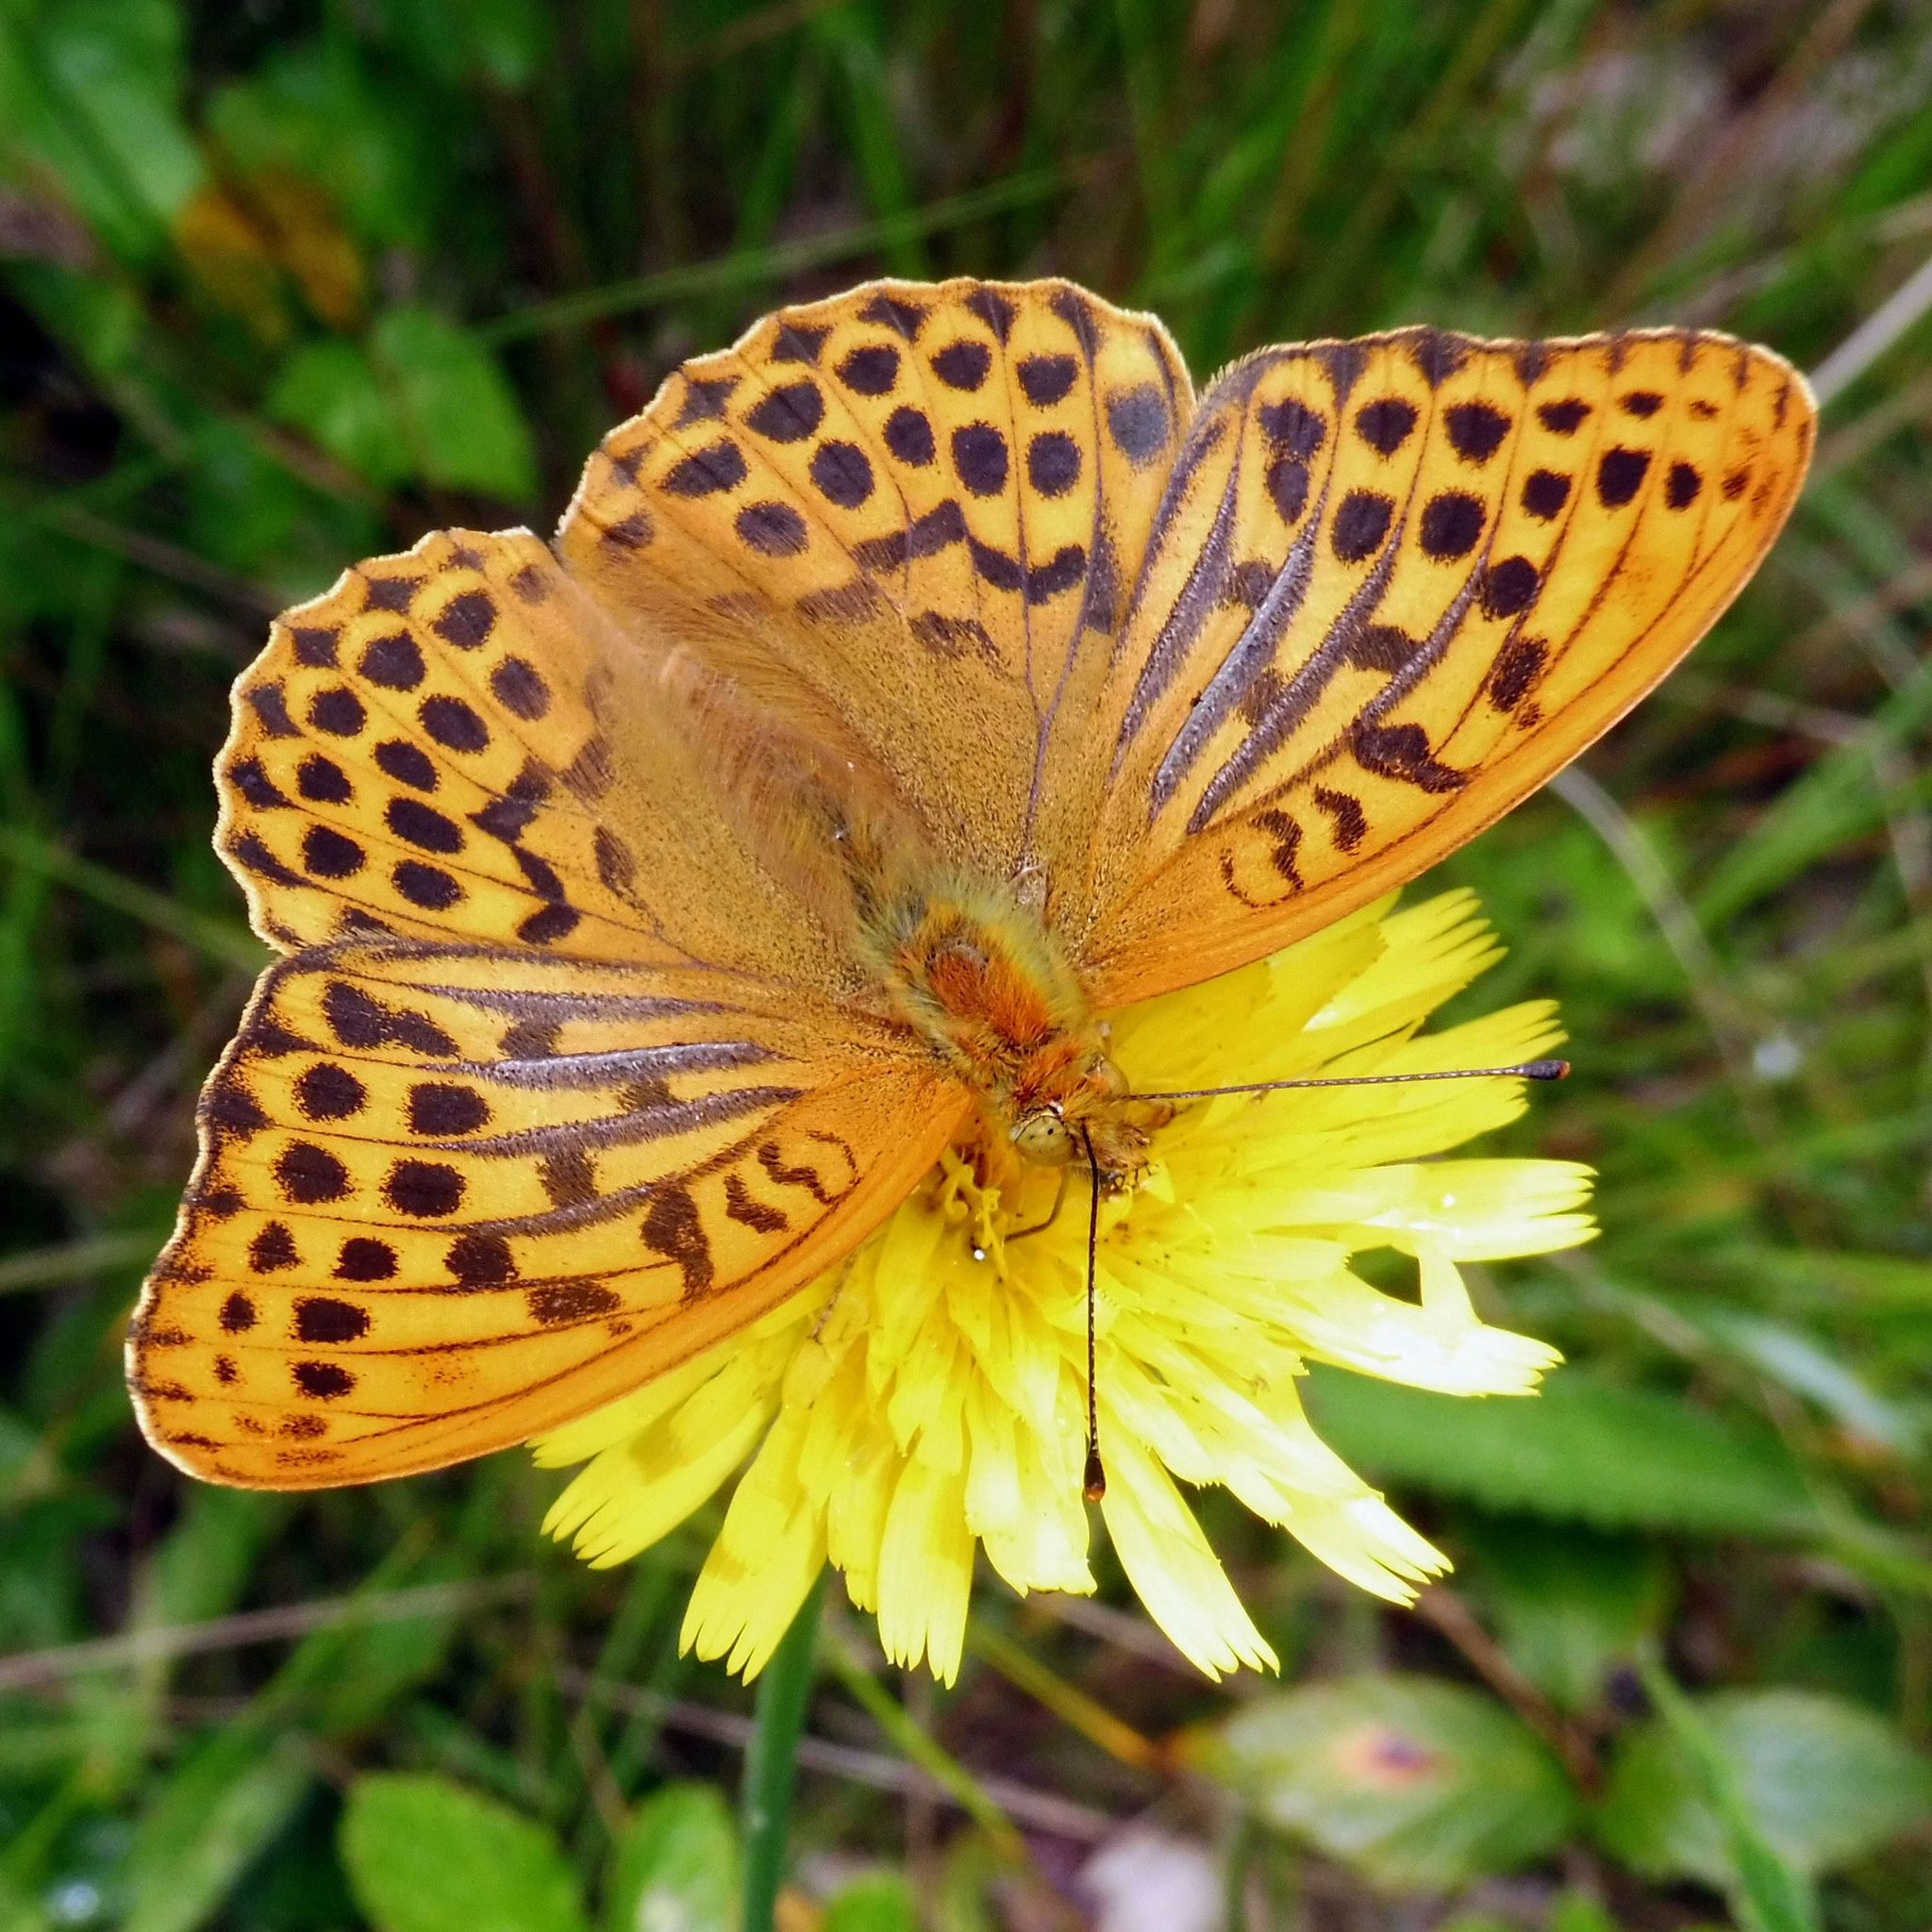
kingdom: Animalia
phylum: Arthropoda
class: Insecta
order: Lepidoptera
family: Nymphalidae
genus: Argynnis
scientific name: Argynnis paphia
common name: Silver-washed fritillary
